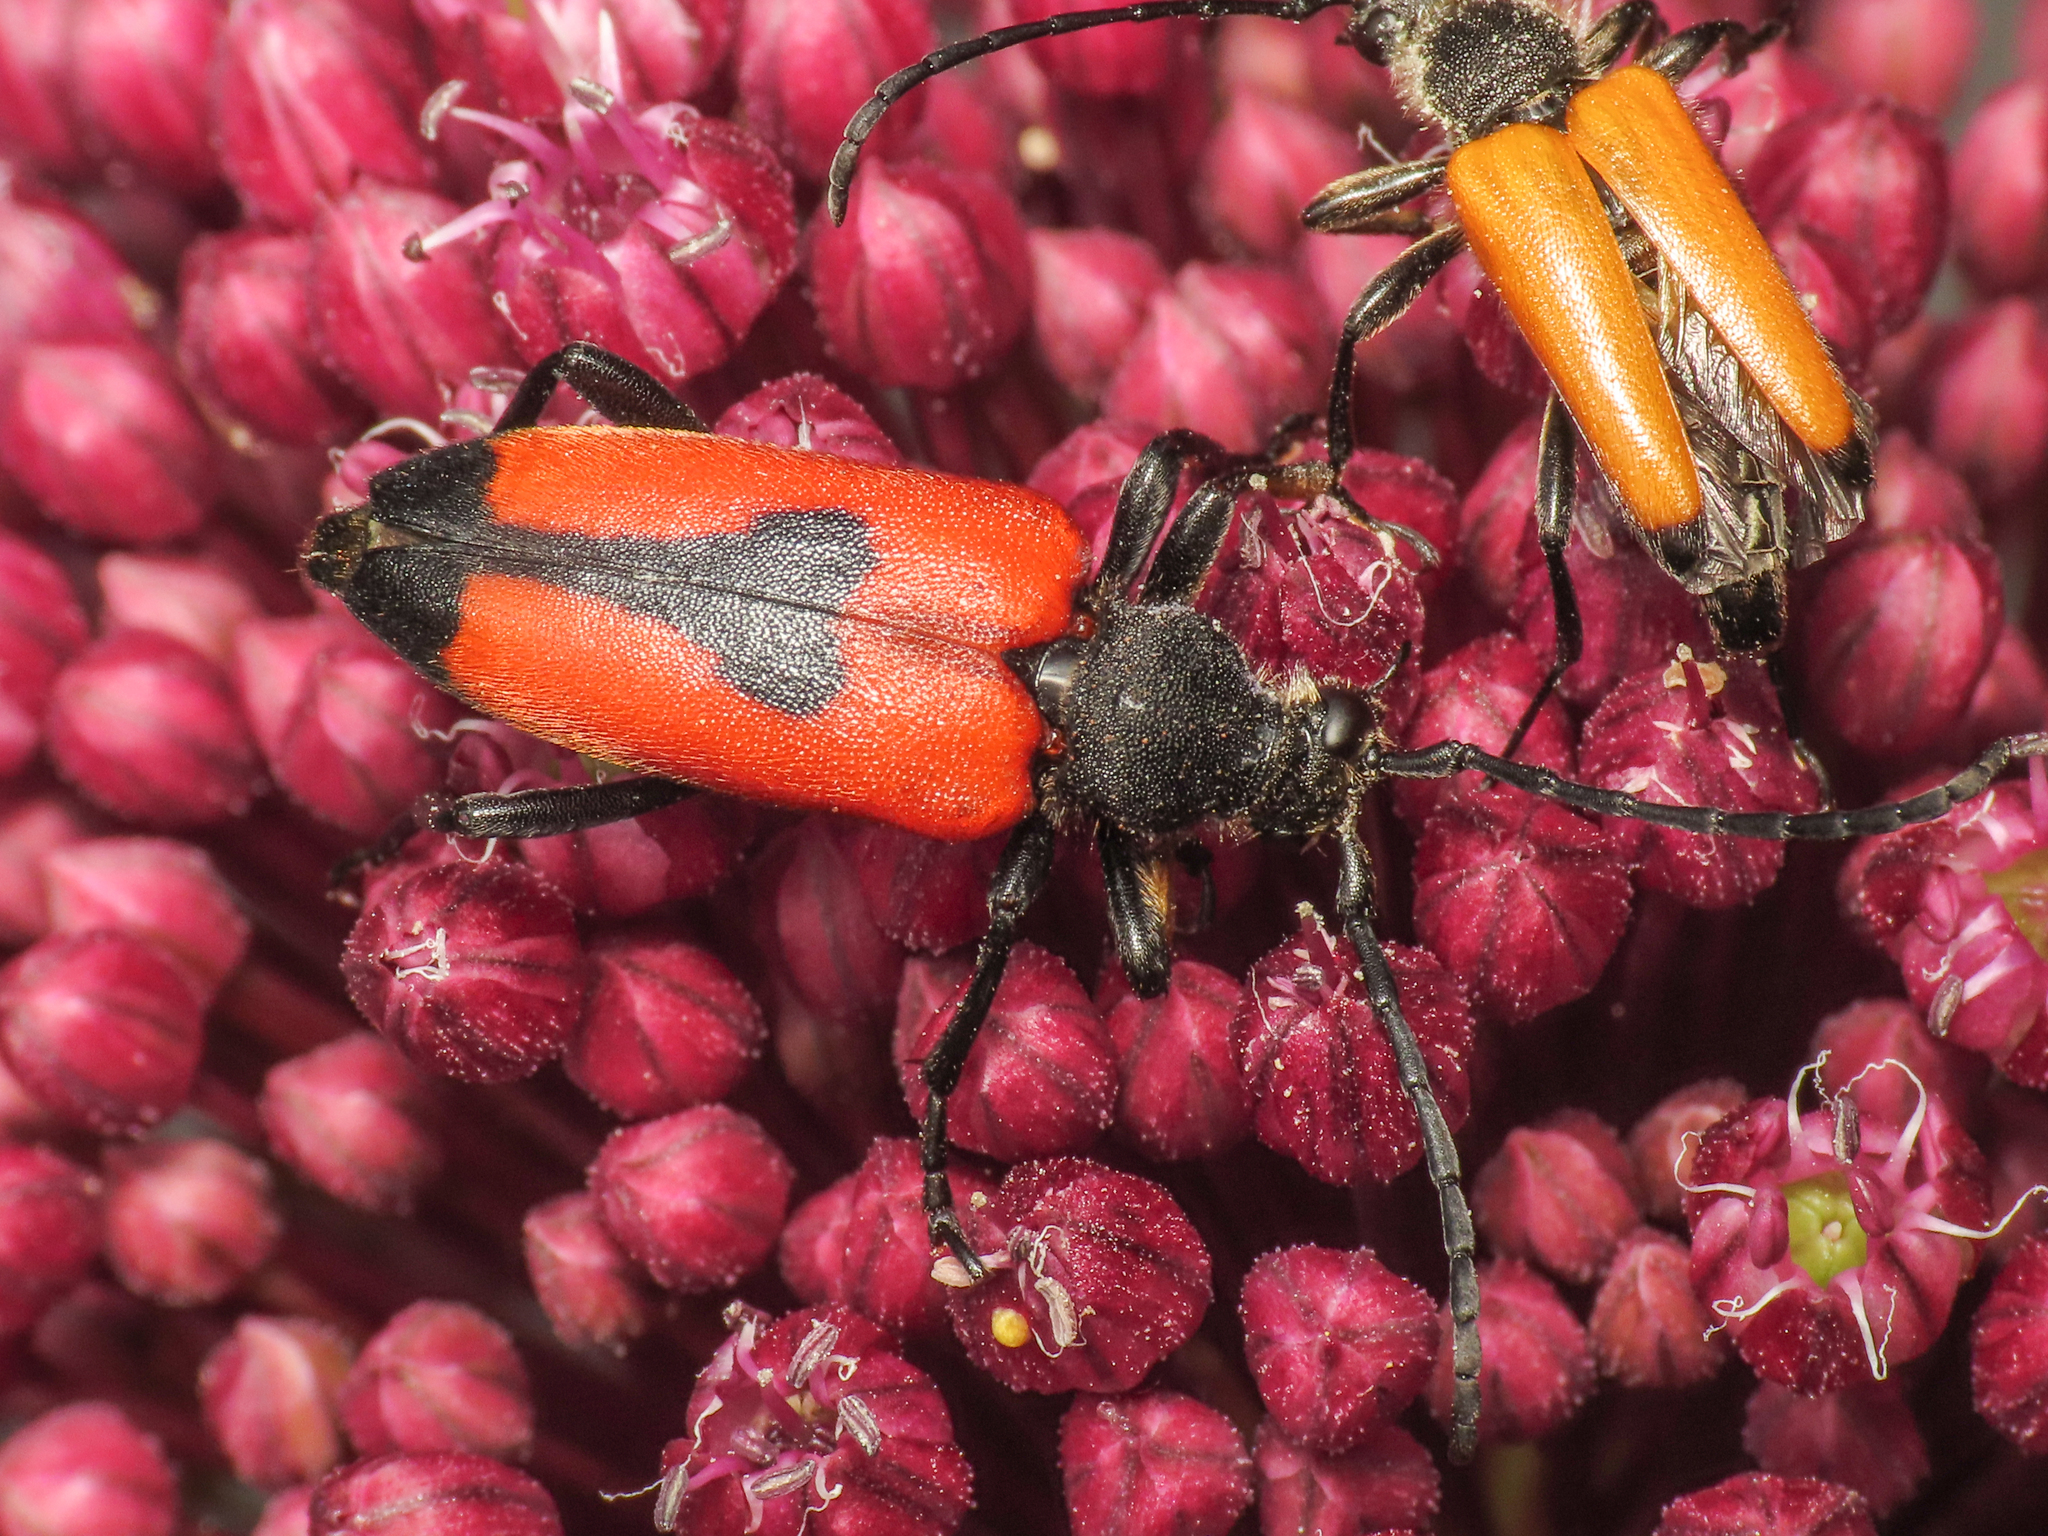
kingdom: Animalia
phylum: Arthropoda
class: Insecta
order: Coleoptera
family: Cerambycidae
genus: Stictoleptura
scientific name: Stictoleptura cordigera
